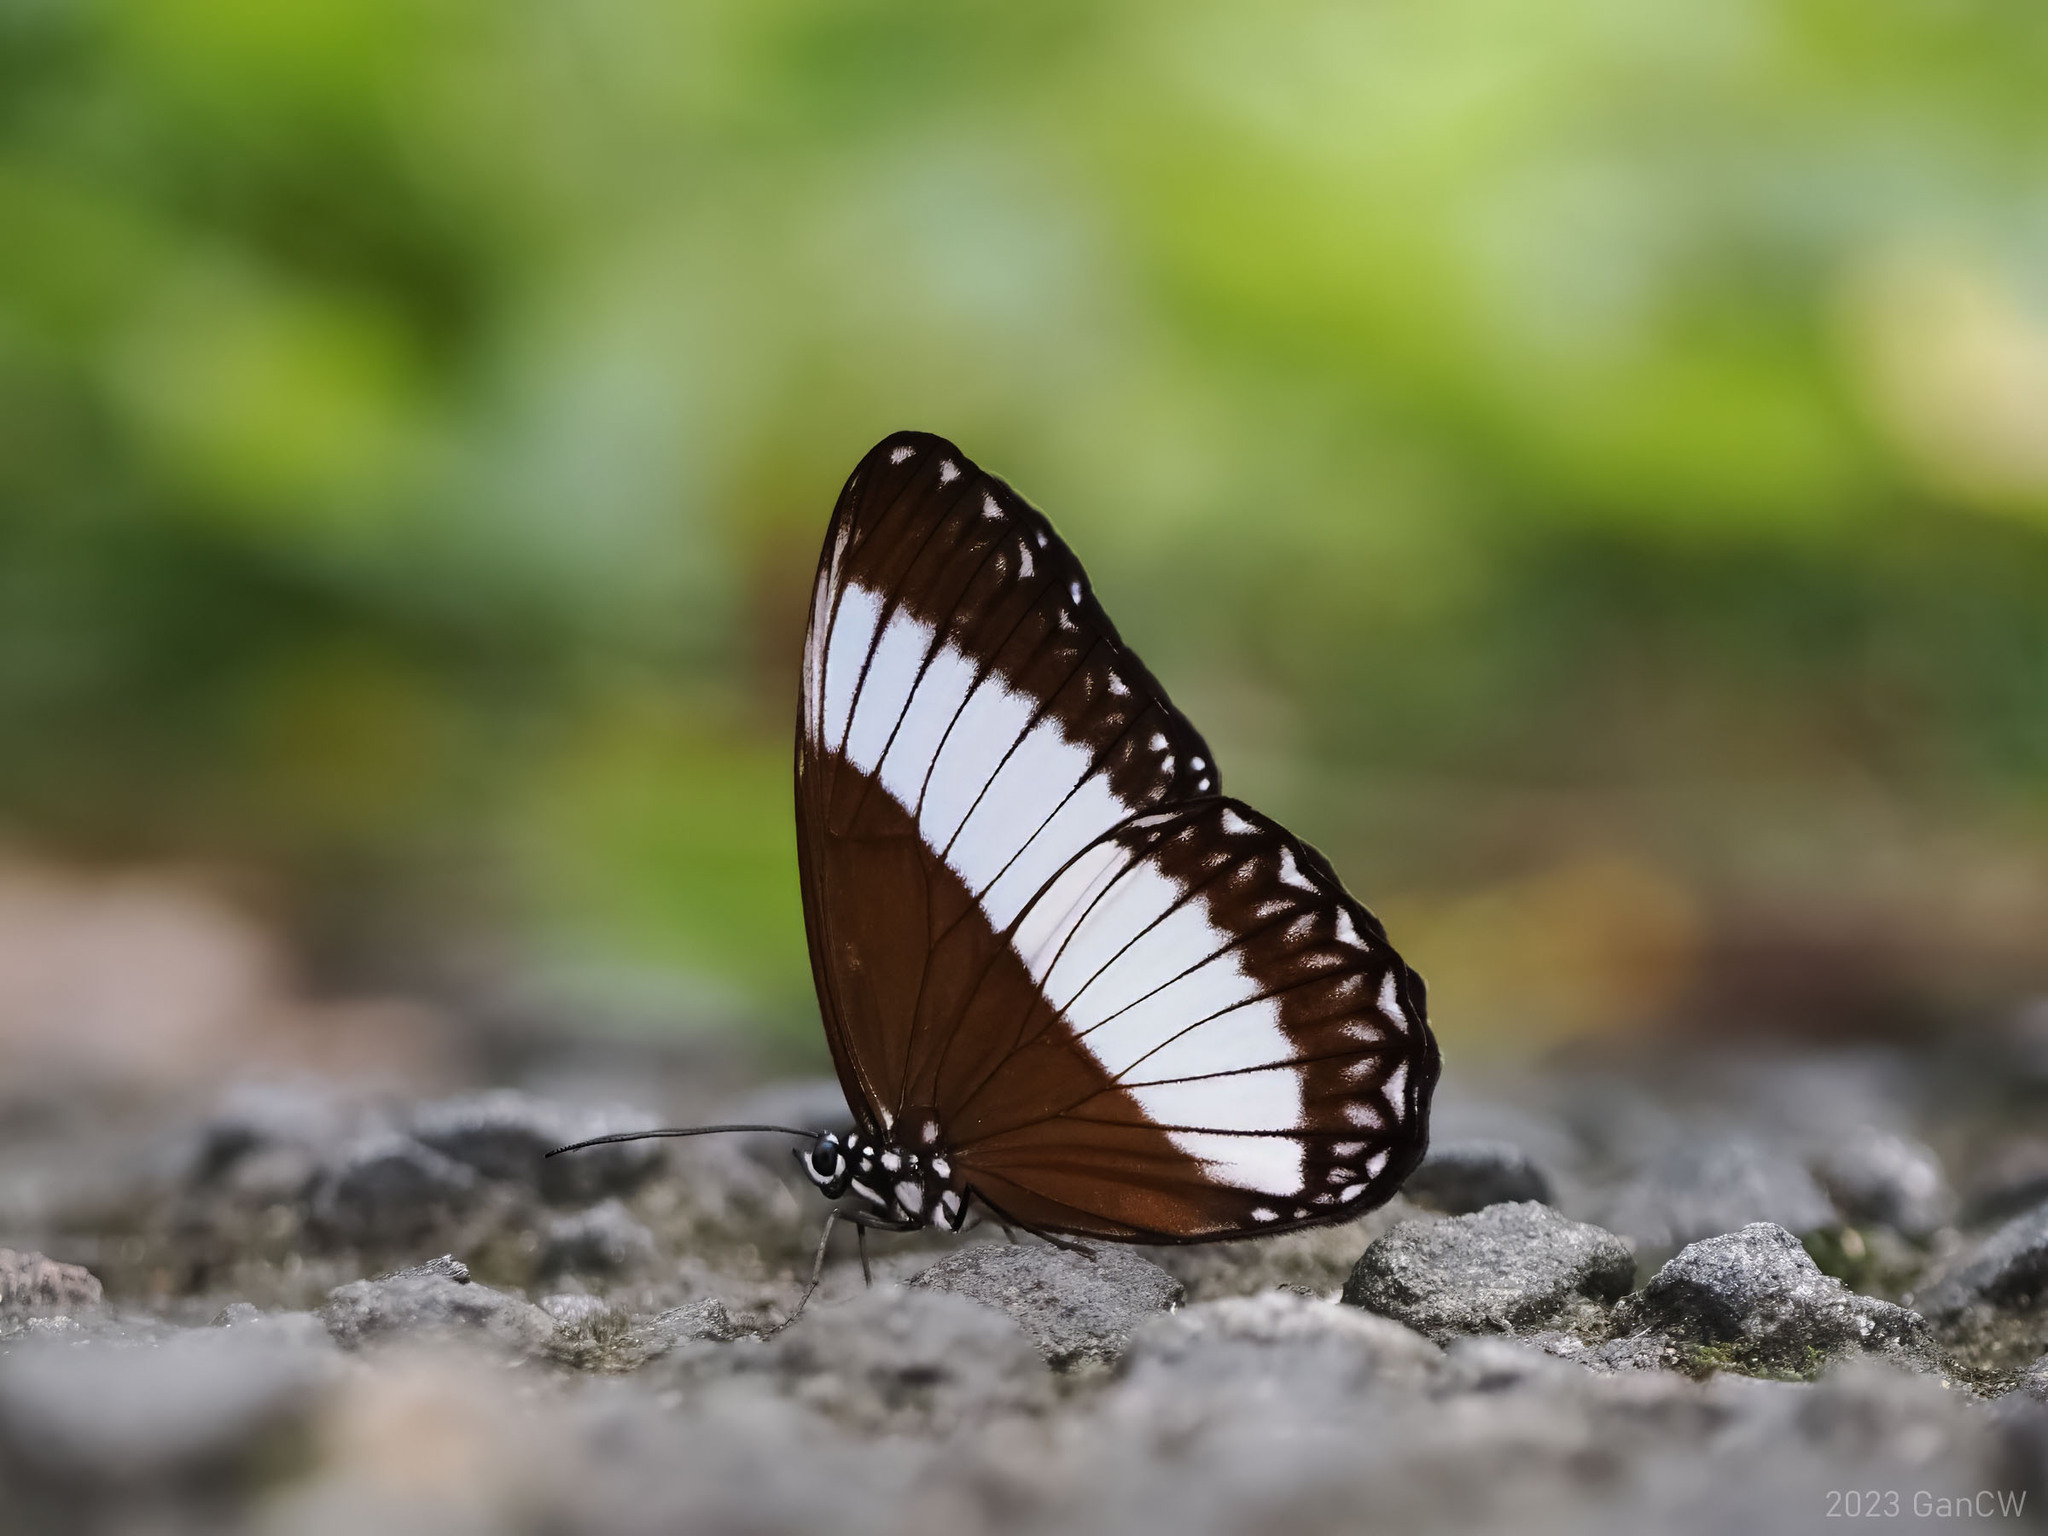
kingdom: Animalia
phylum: Arthropoda
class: Insecta
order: Lepidoptera
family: Nymphalidae
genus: Zethera
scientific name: Zethera pimplea
